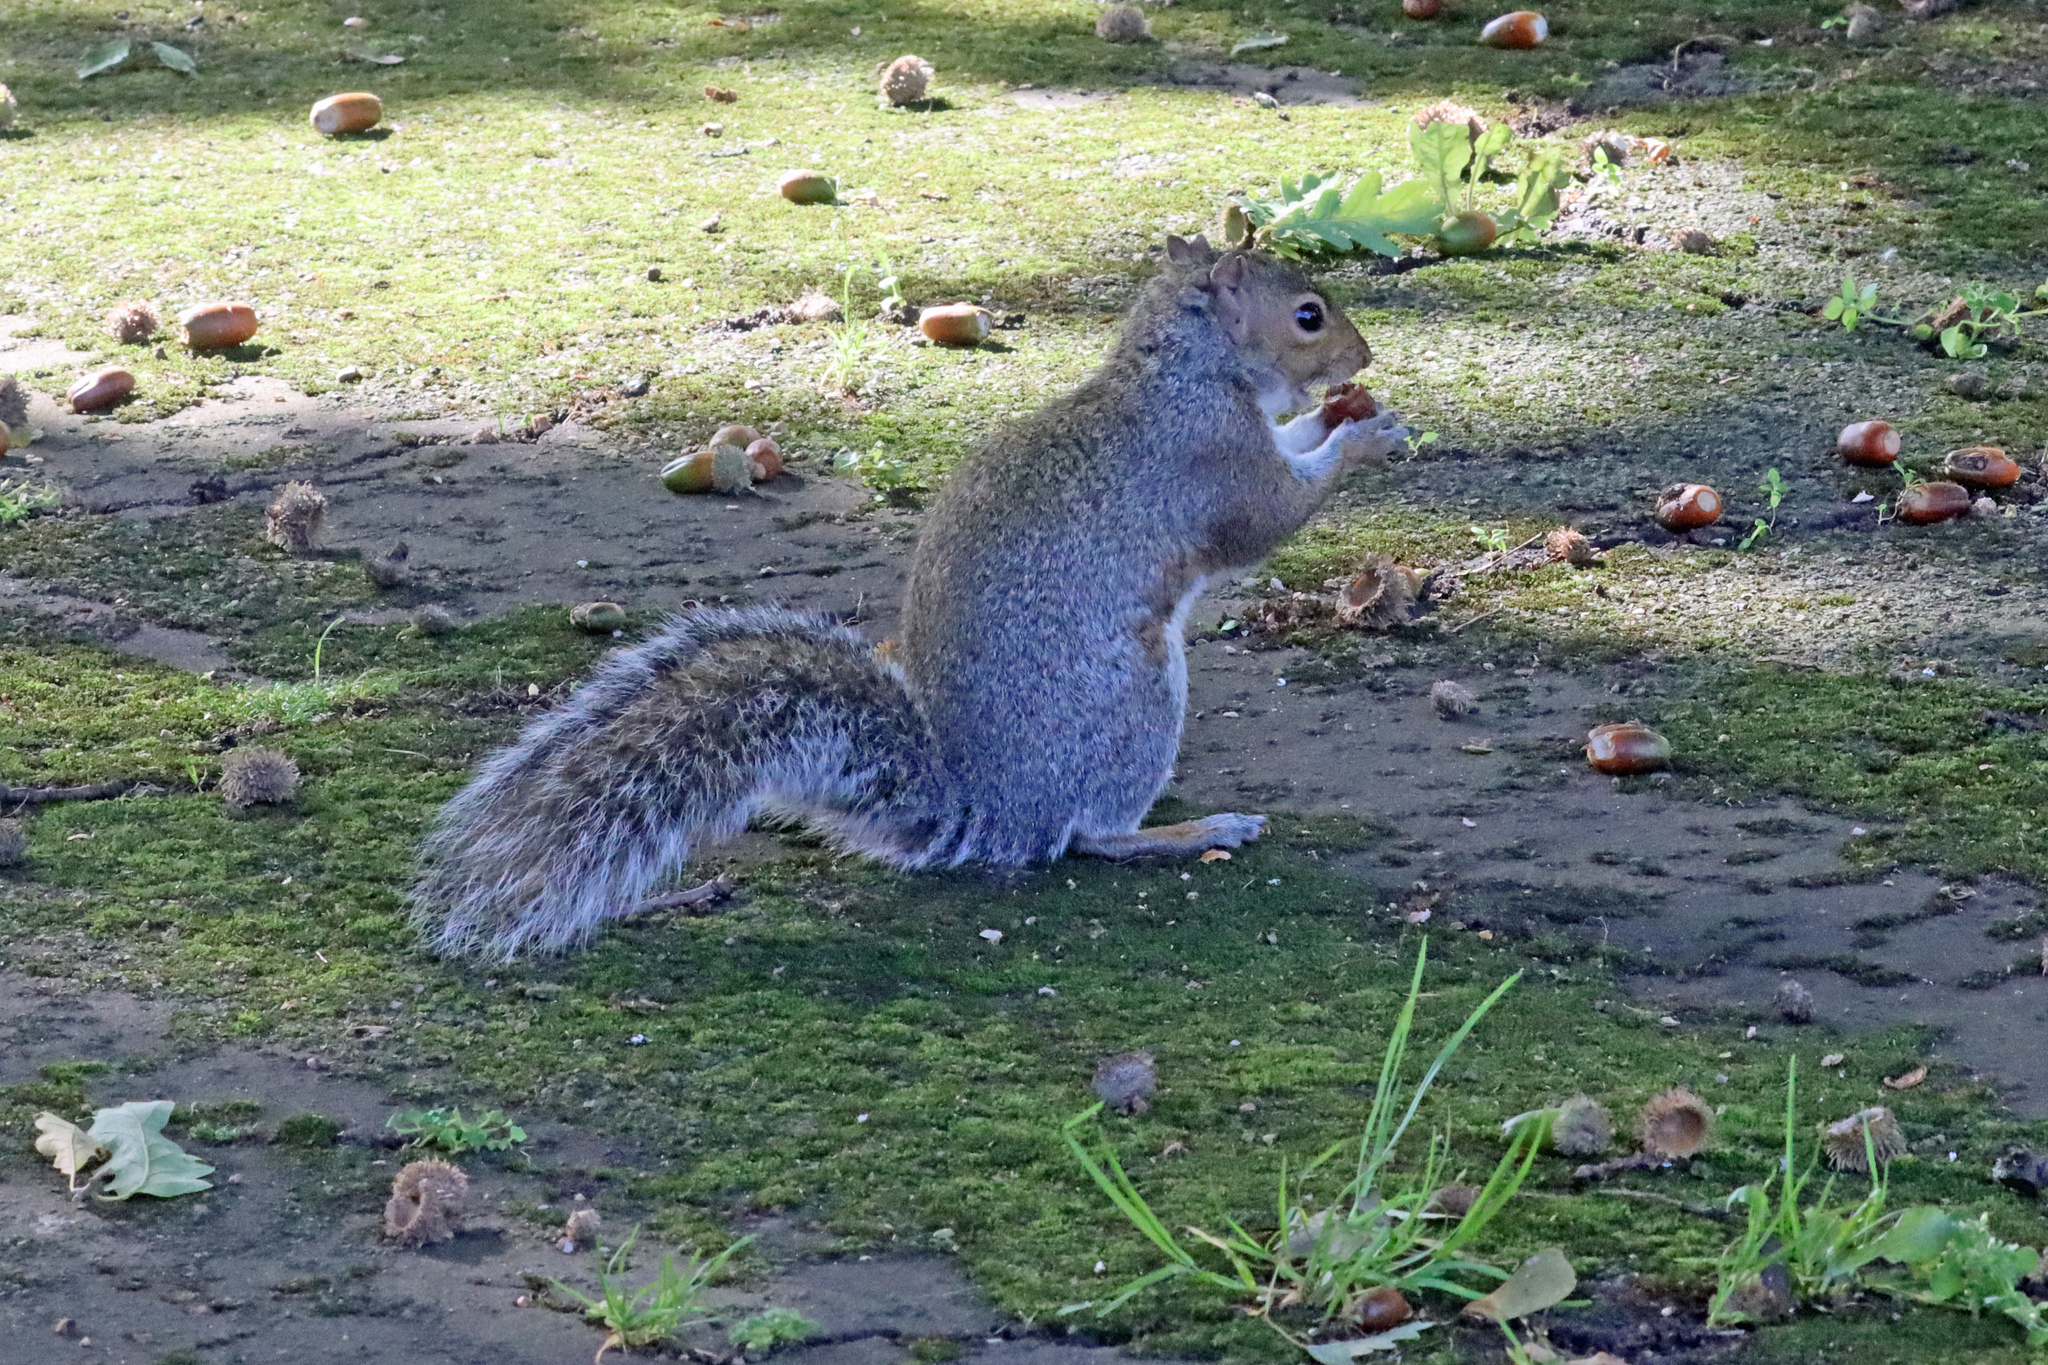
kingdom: Animalia
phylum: Chordata
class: Mammalia
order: Rodentia
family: Sciuridae
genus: Sciurus
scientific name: Sciurus carolinensis
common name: Eastern gray squirrel
